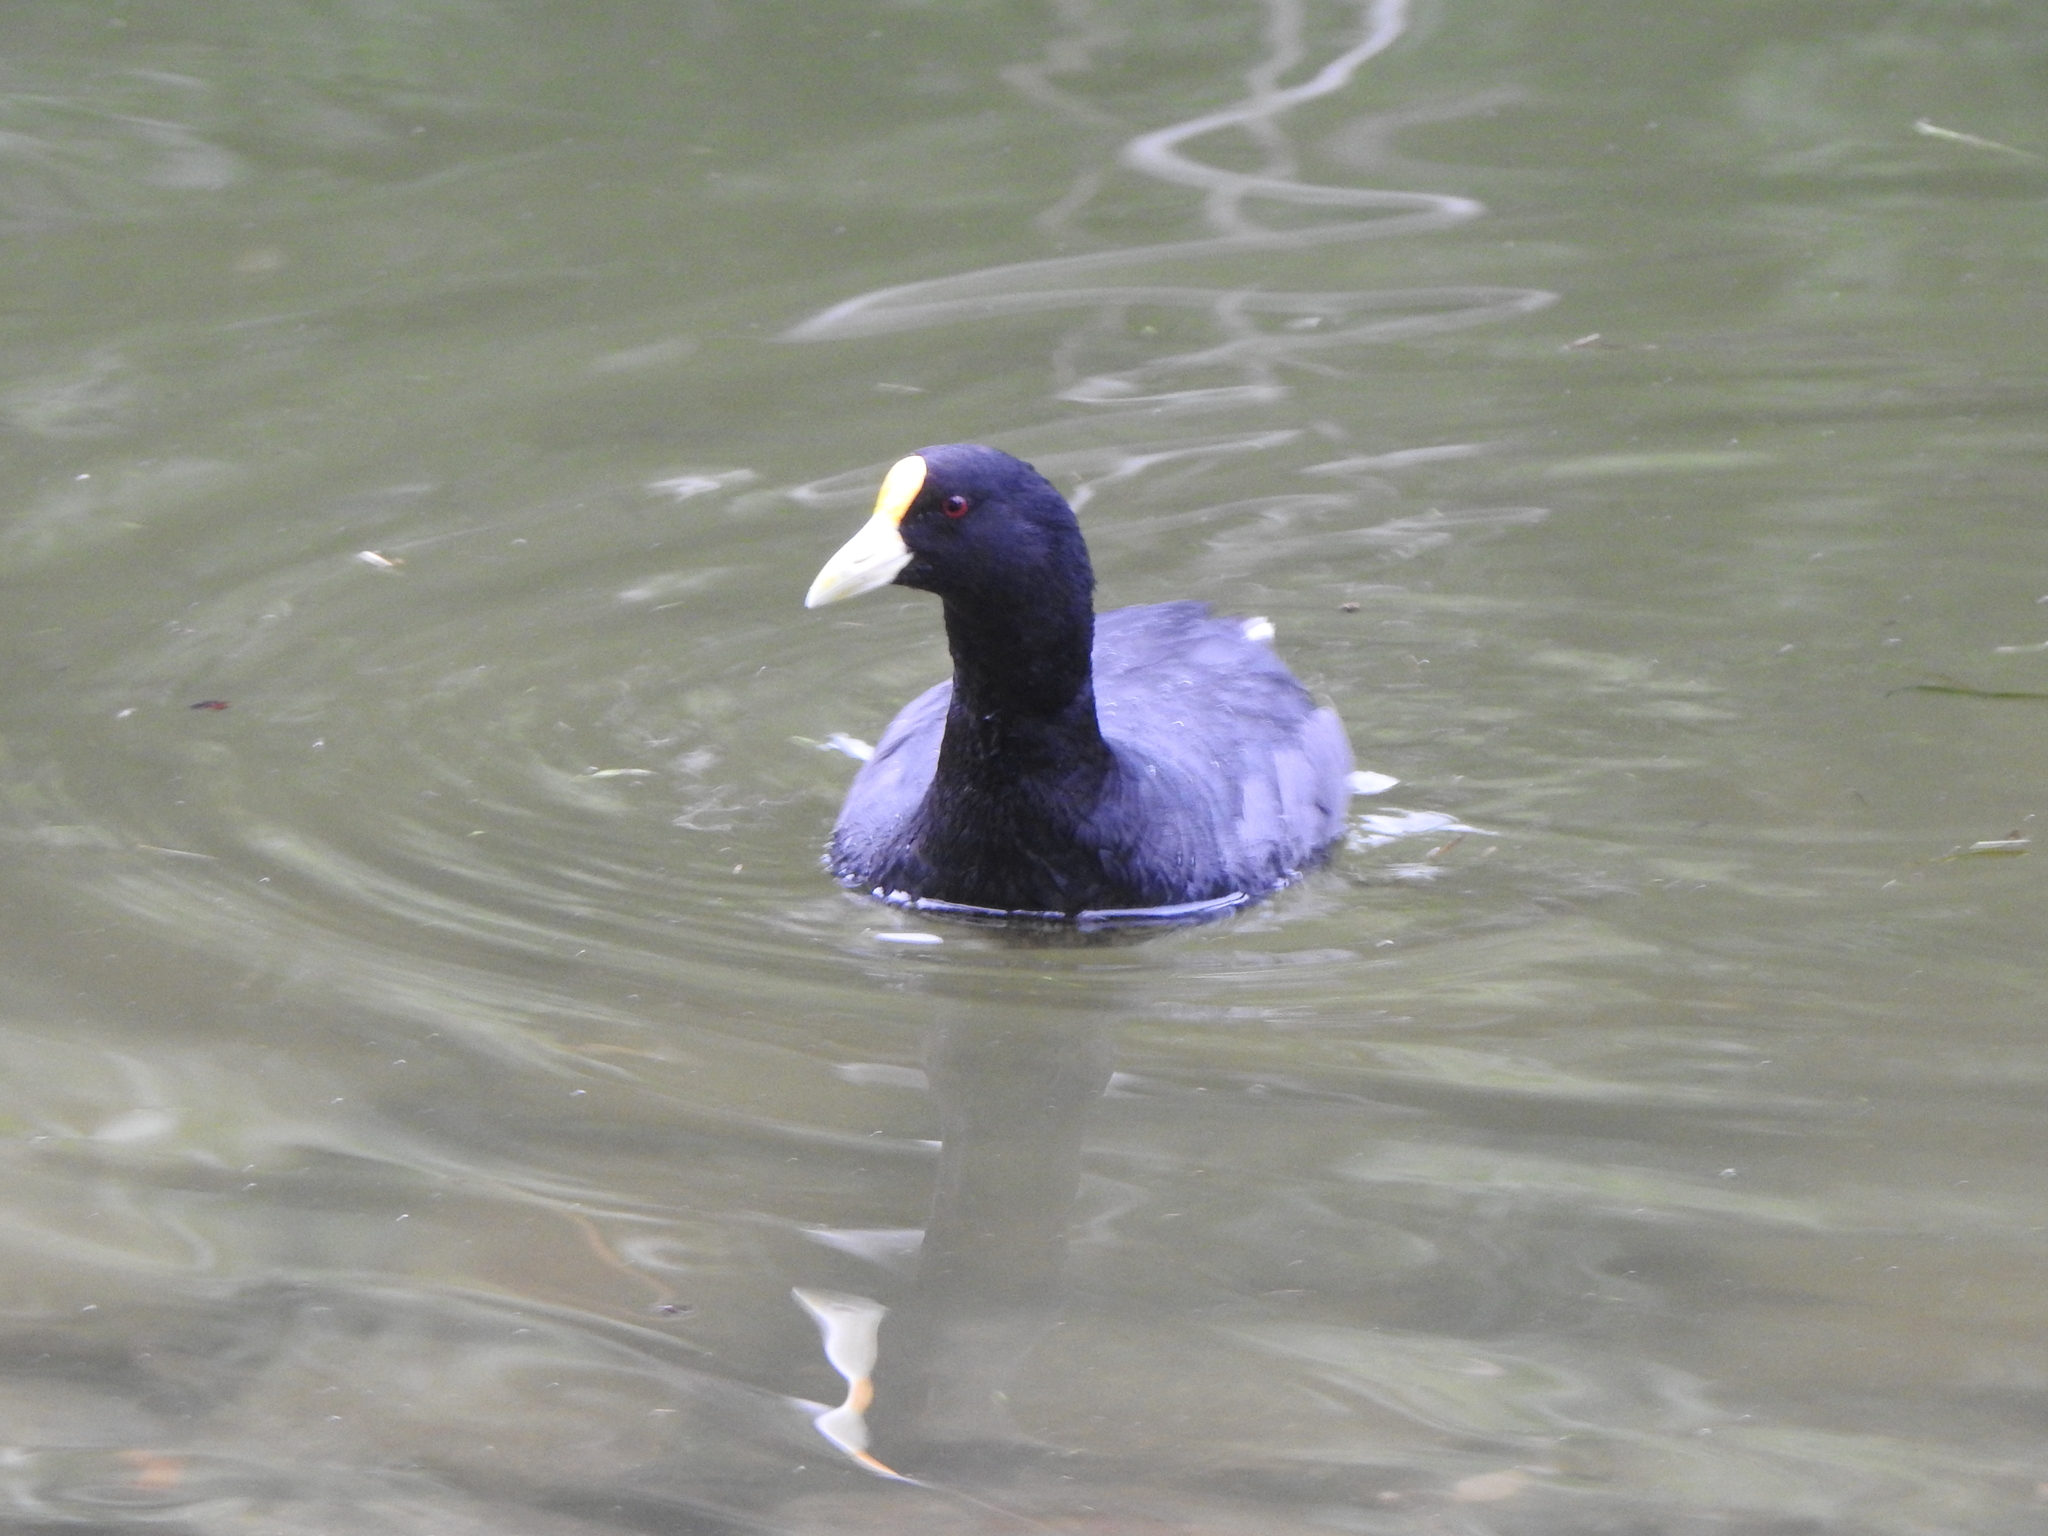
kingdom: Animalia
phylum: Chordata
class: Aves
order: Gruiformes
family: Rallidae
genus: Fulica
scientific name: Fulica leucoptera
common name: White-winged coot
